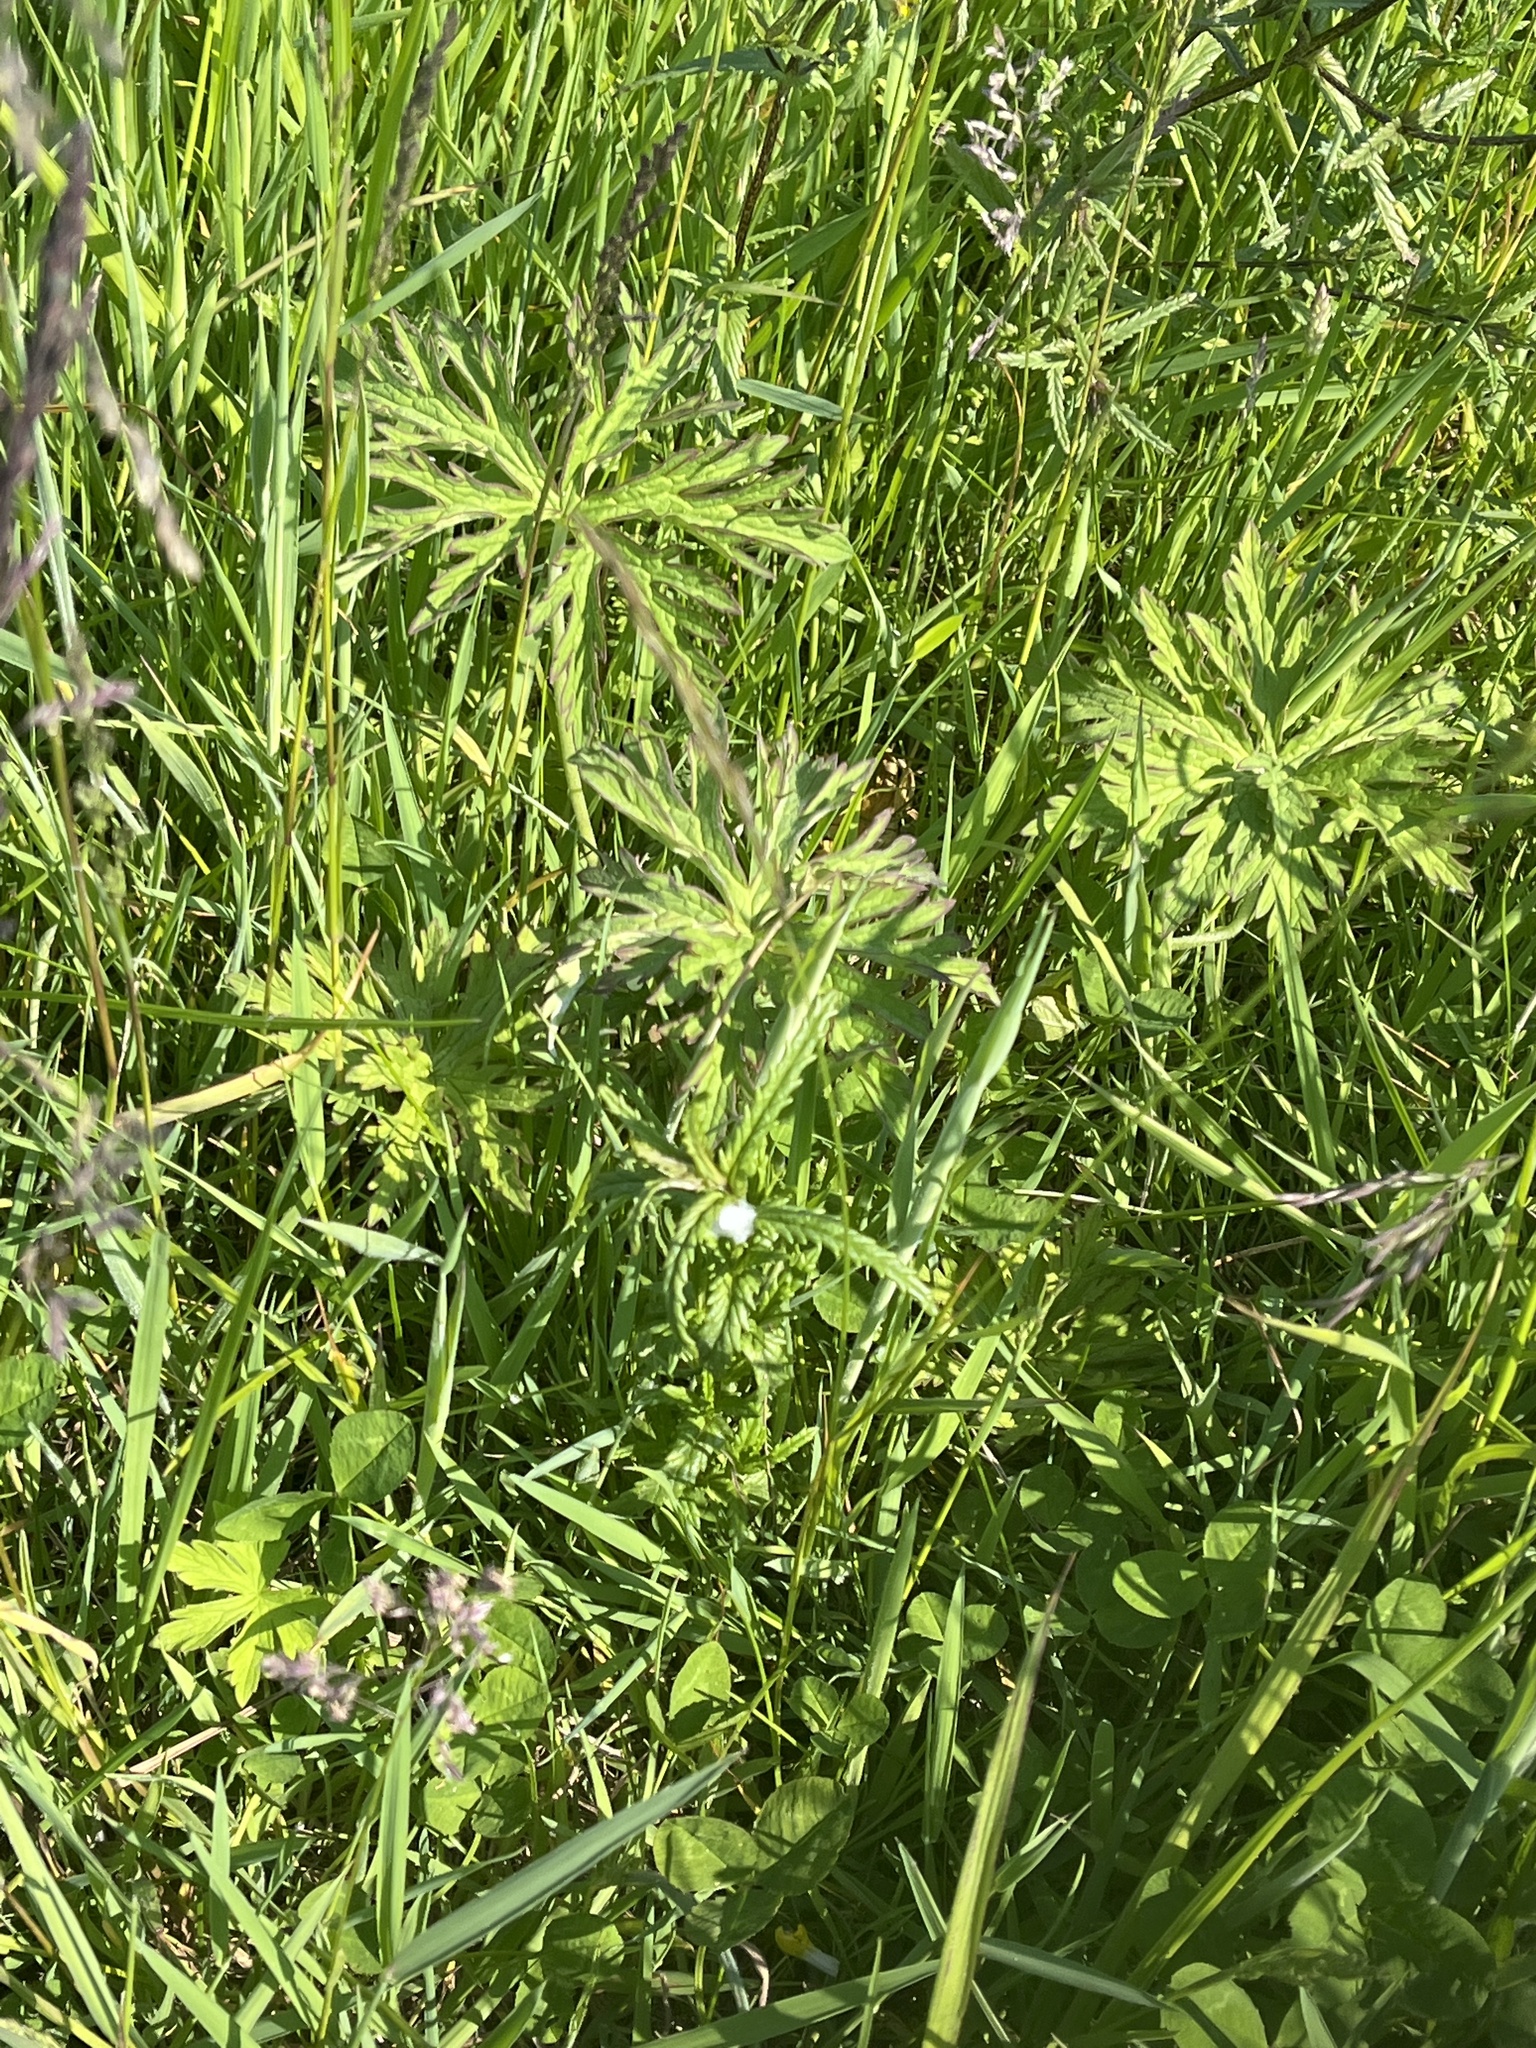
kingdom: Plantae
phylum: Tracheophyta
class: Magnoliopsida
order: Geraniales
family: Geraniaceae
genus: Geranium
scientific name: Geranium pratense
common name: Meadow crane's-bill
